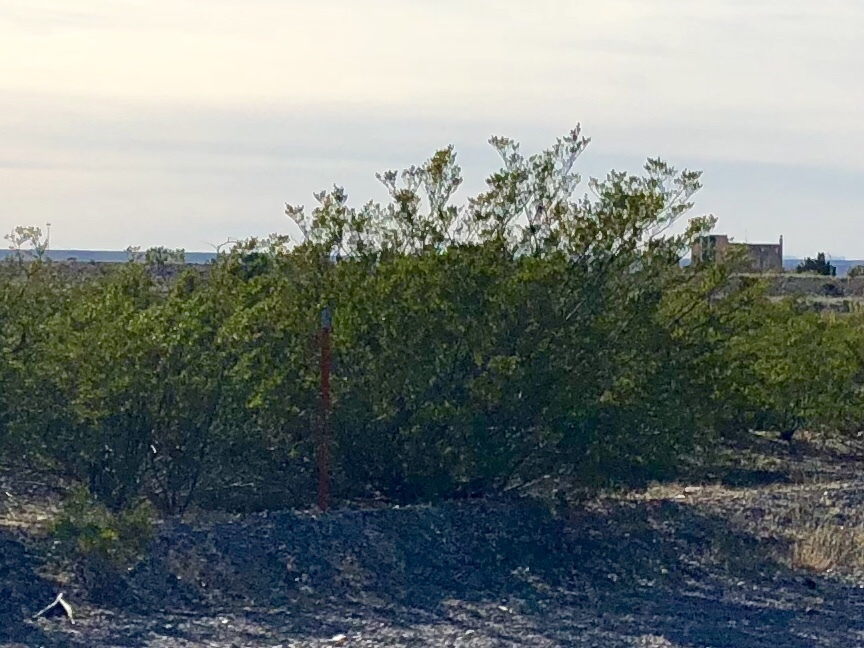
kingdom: Plantae
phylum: Tracheophyta
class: Magnoliopsida
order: Zygophyllales
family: Zygophyllaceae
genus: Larrea
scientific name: Larrea tridentata
